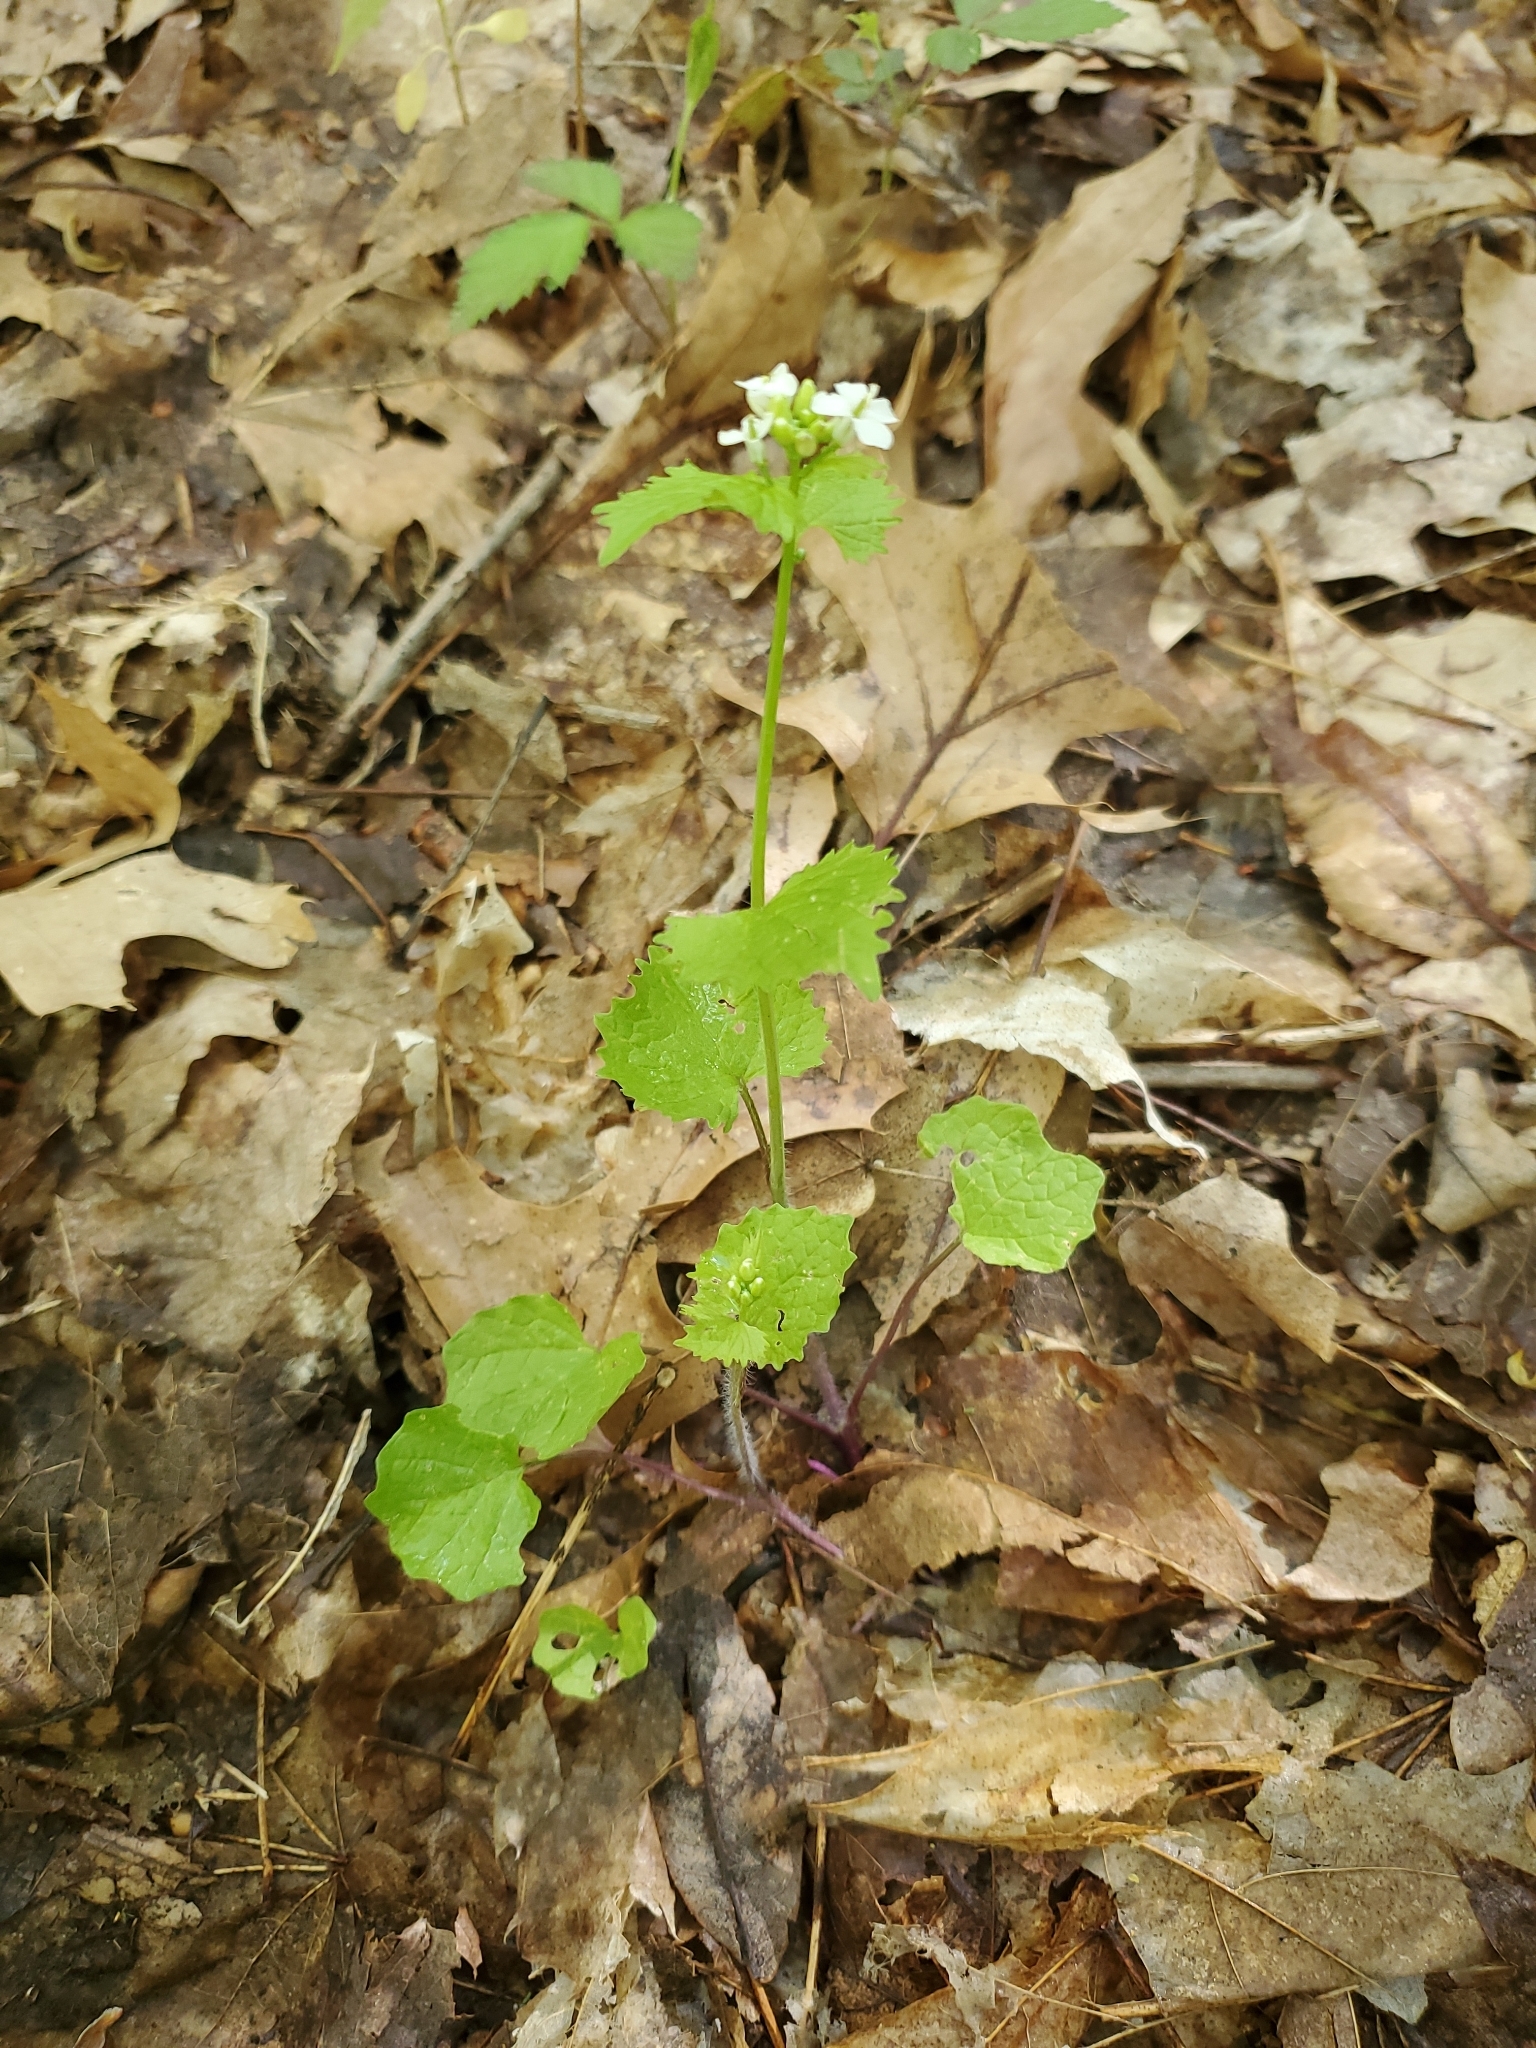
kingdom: Plantae
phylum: Tracheophyta
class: Magnoliopsida
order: Brassicales
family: Brassicaceae
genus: Alliaria
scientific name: Alliaria petiolata
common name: Garlic mustard
